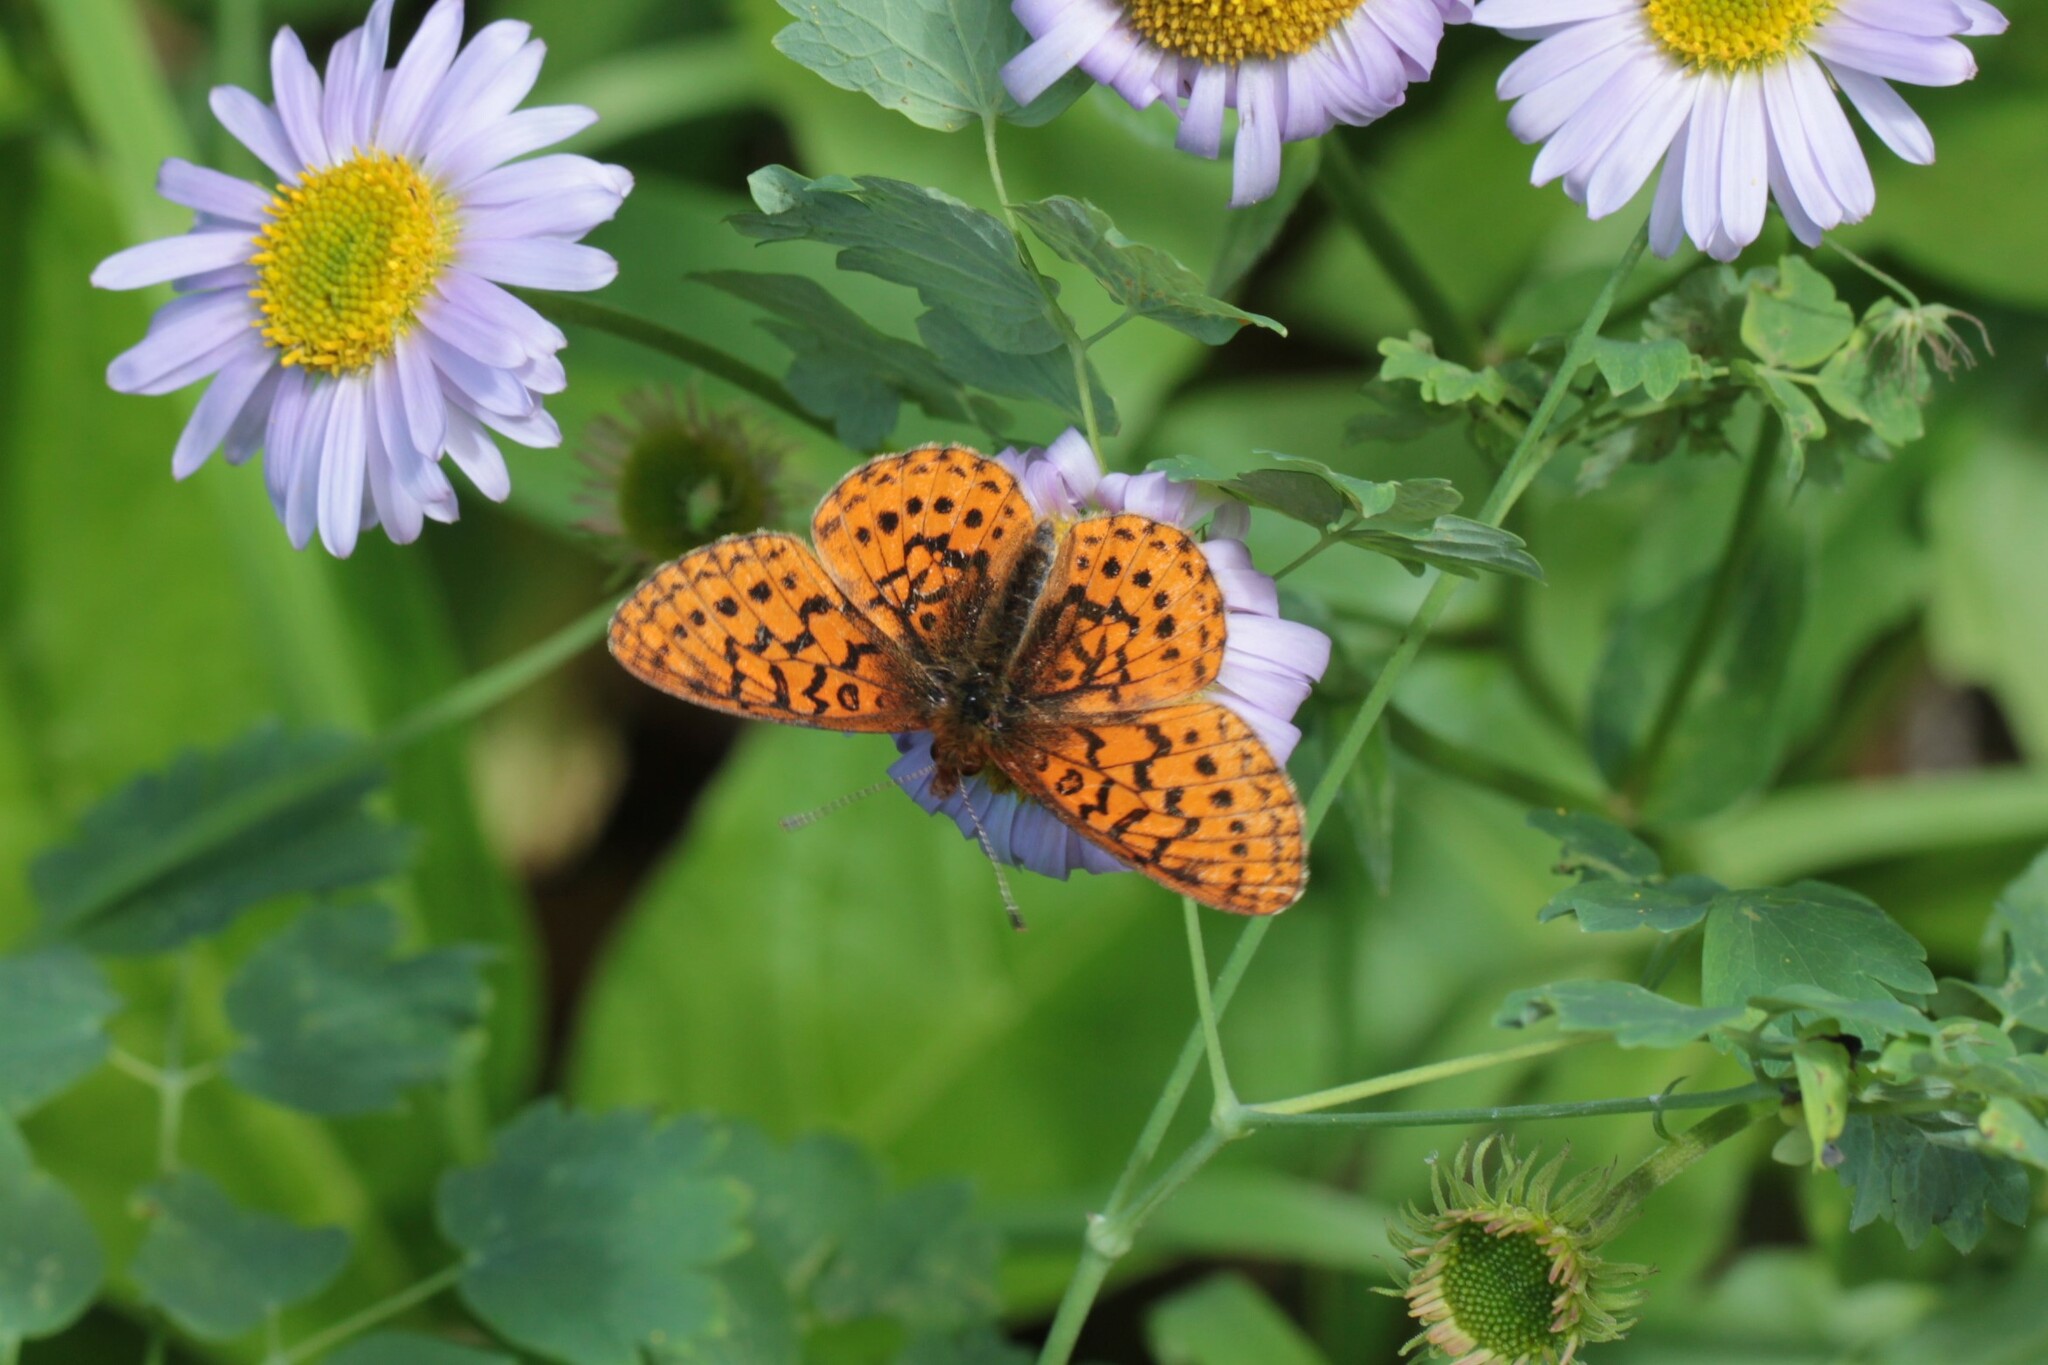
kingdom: Animalia
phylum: Arthropoda
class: Insecta
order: Lepidoptera
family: Nymphalidae
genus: Boloria
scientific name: Boloria epithore
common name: Pacific fritillary
